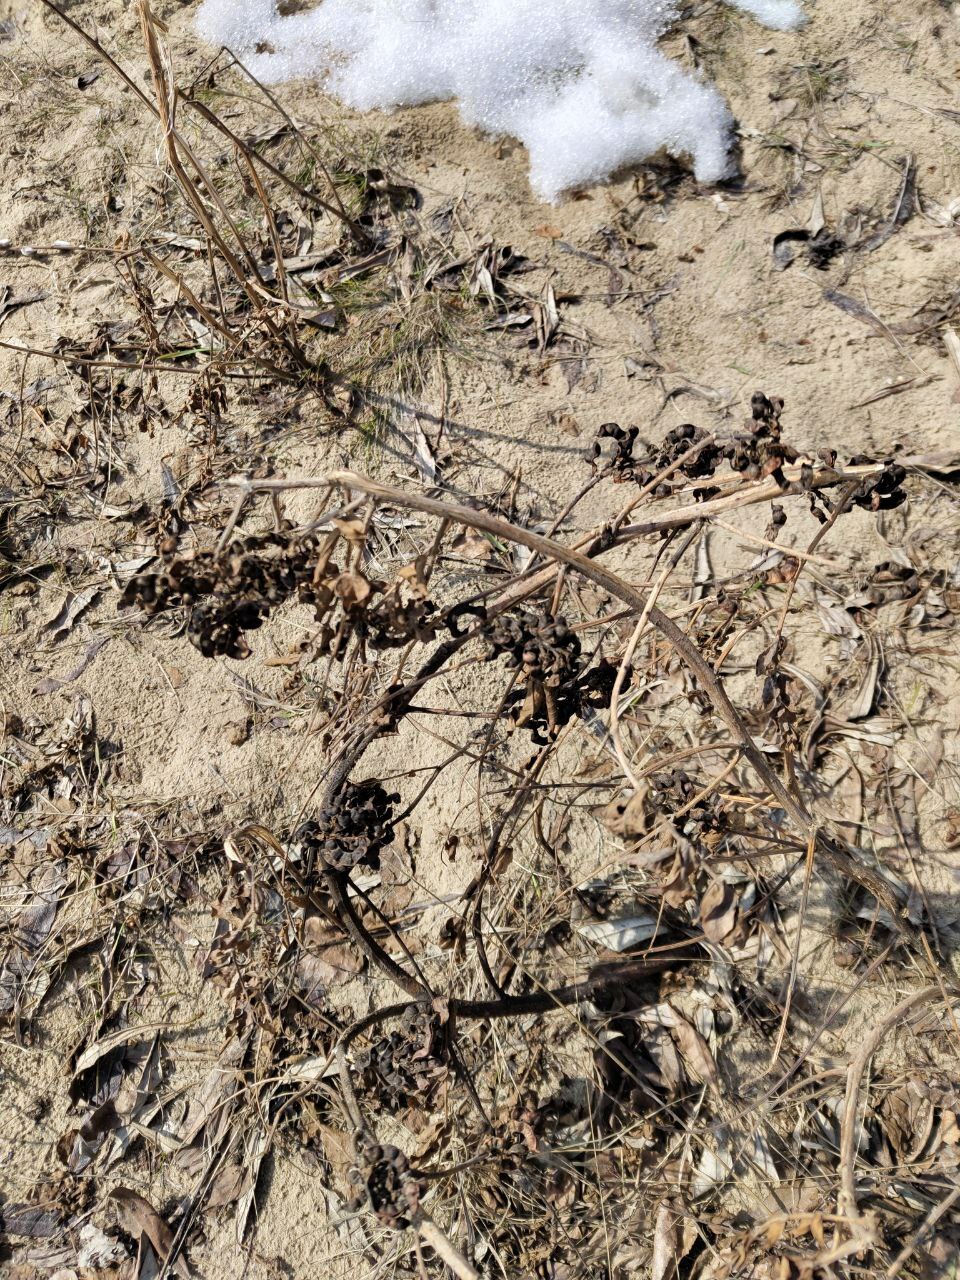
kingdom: Plantae
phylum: Tracheophyta
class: Magnoliopsida
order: Fabales
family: Fabaceae
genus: Glycyrrhiza
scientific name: Glycyrrhiza uralensis
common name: Chinese licorice
